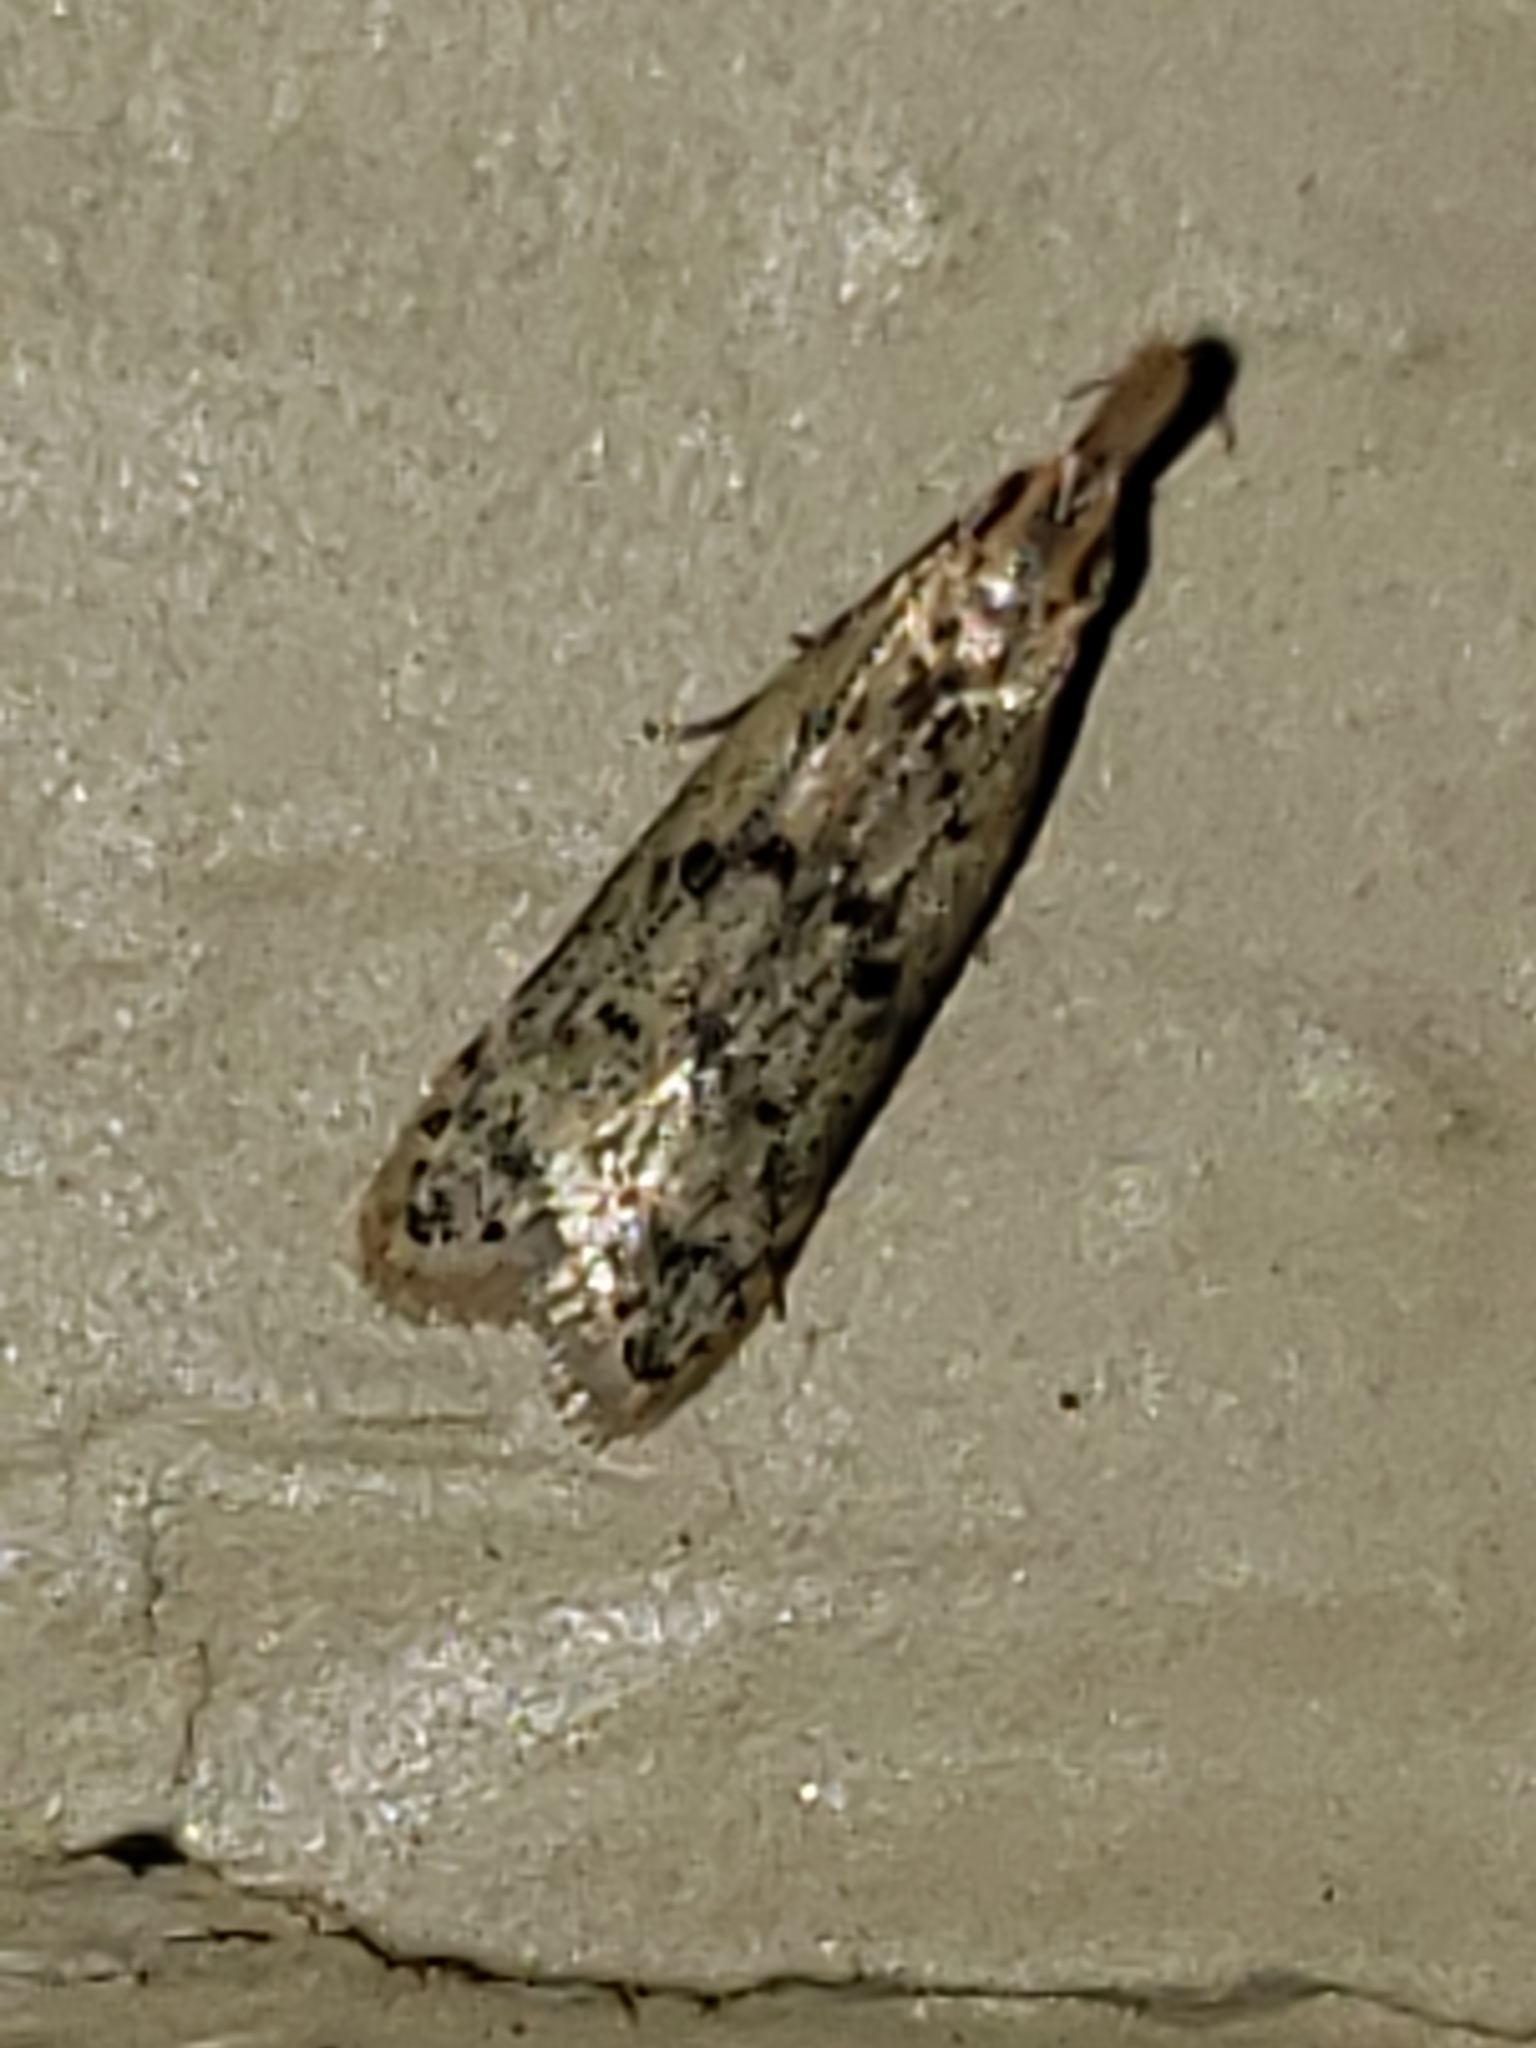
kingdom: Animalia
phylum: Arthropoda
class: Insecta
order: Lepidoptera
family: Gelechiidae
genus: Dichomeris
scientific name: Dichomeris punctipennella
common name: Many-spotted dichomeris moth
